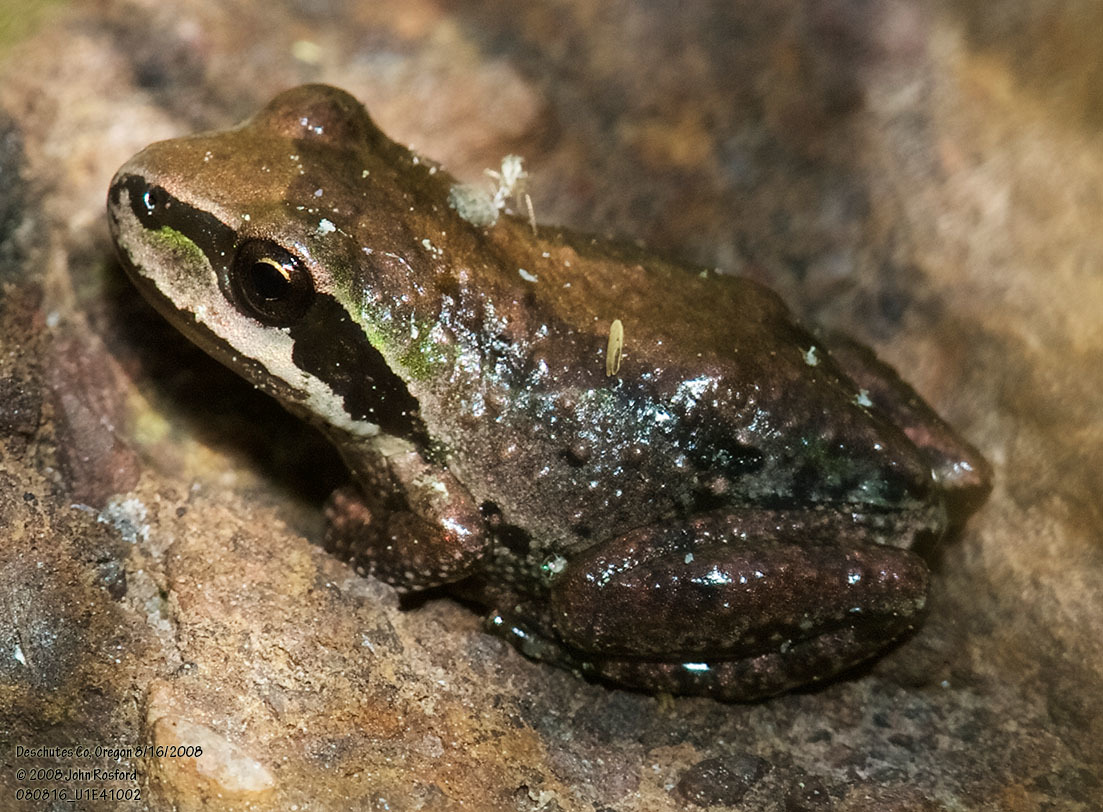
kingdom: Animalia
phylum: Chordata
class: Amphibia
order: Anura
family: Hylidae
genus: Pseudacris
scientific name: Pseudacris regilla
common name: Pacific chorus frog
